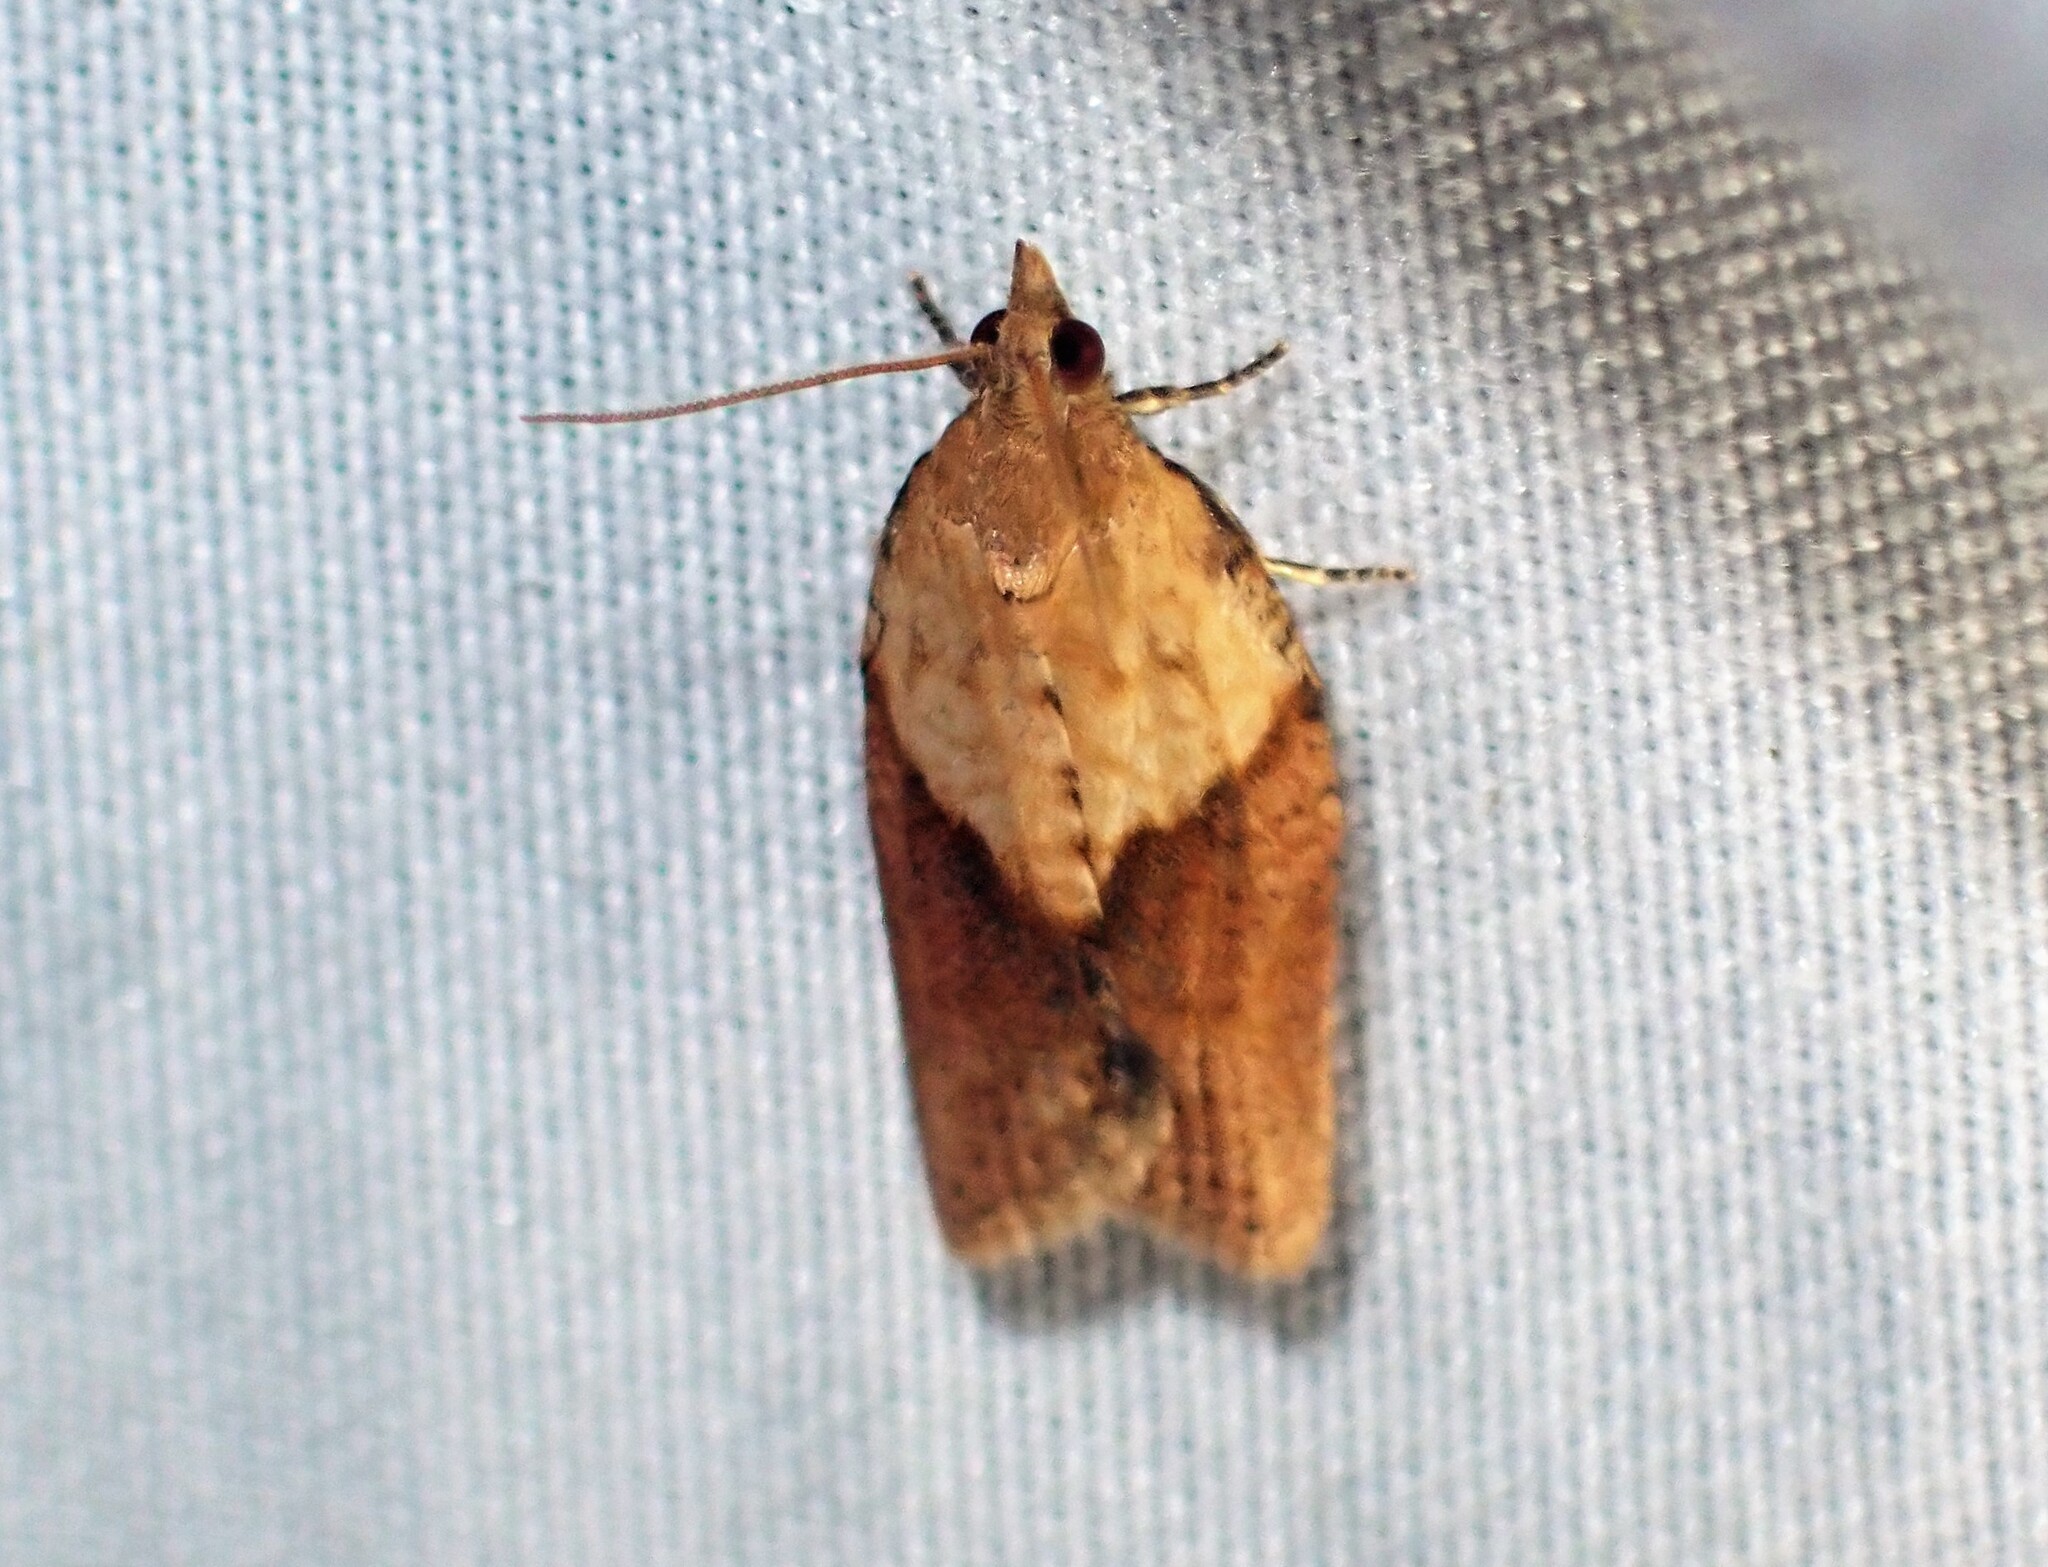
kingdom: Animalia
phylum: Arthropoda
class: Insecta
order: Lepidoptera
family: Tortricidae
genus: Epiphyas
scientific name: Epiphyas postvittana
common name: Light brown apple moth
